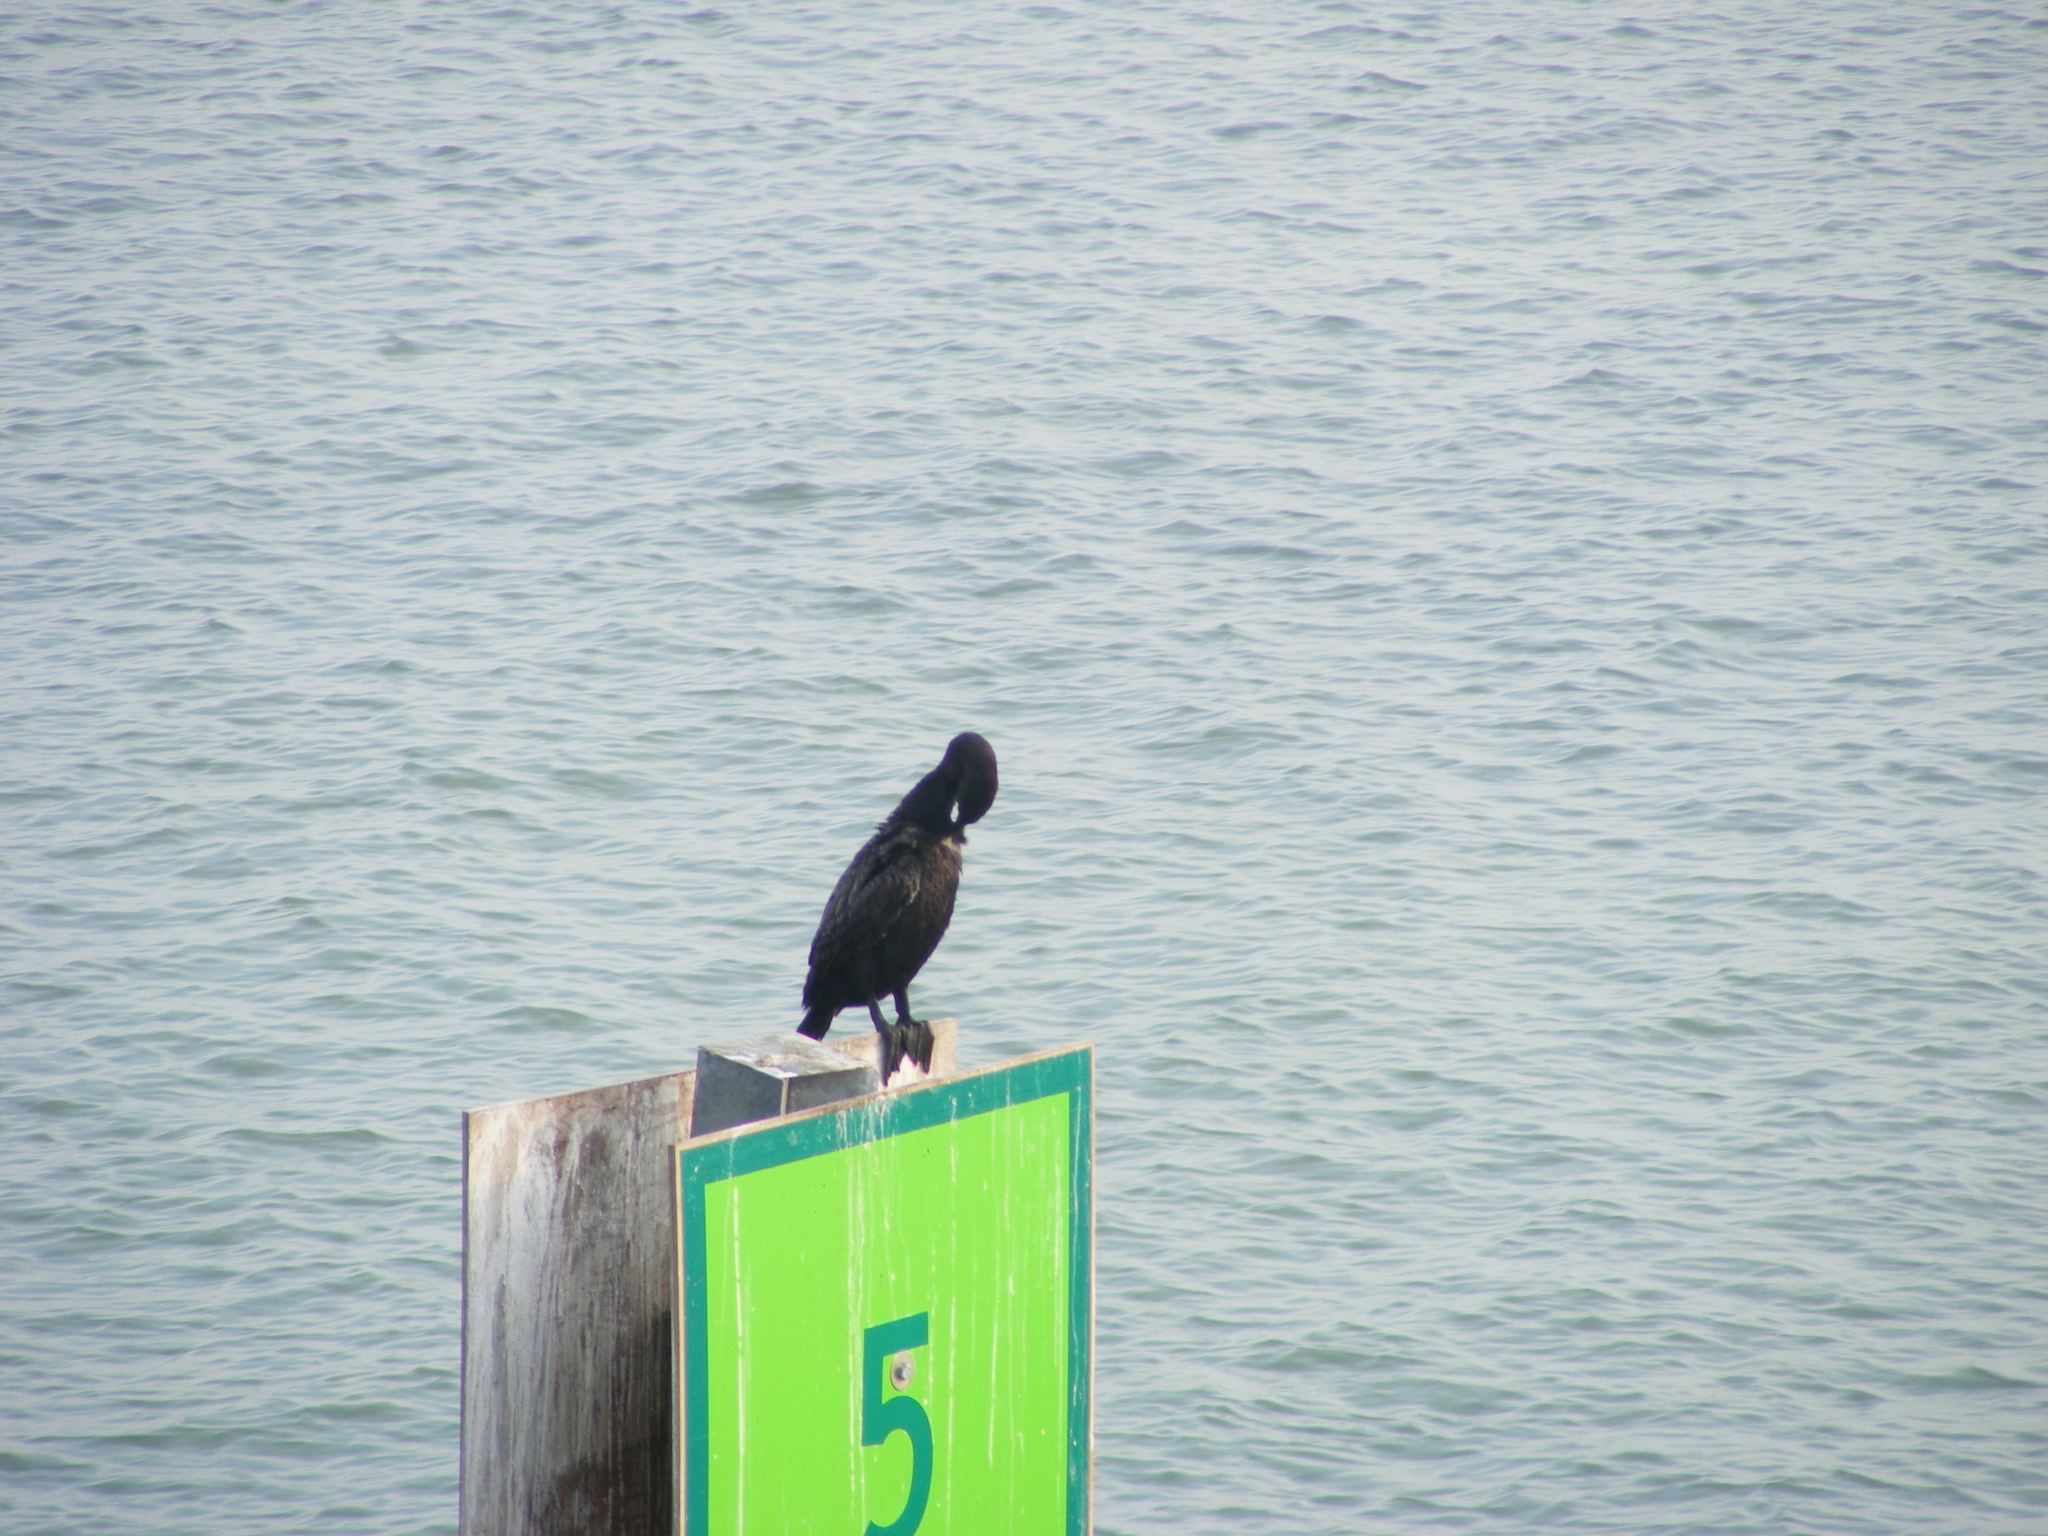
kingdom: Animalia
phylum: Chordata
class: Aves
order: Suliformes
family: Phalacrocoracidae
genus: Phalacrocorax
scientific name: Phalacrocorax auritus
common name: Double-crested cormorant
